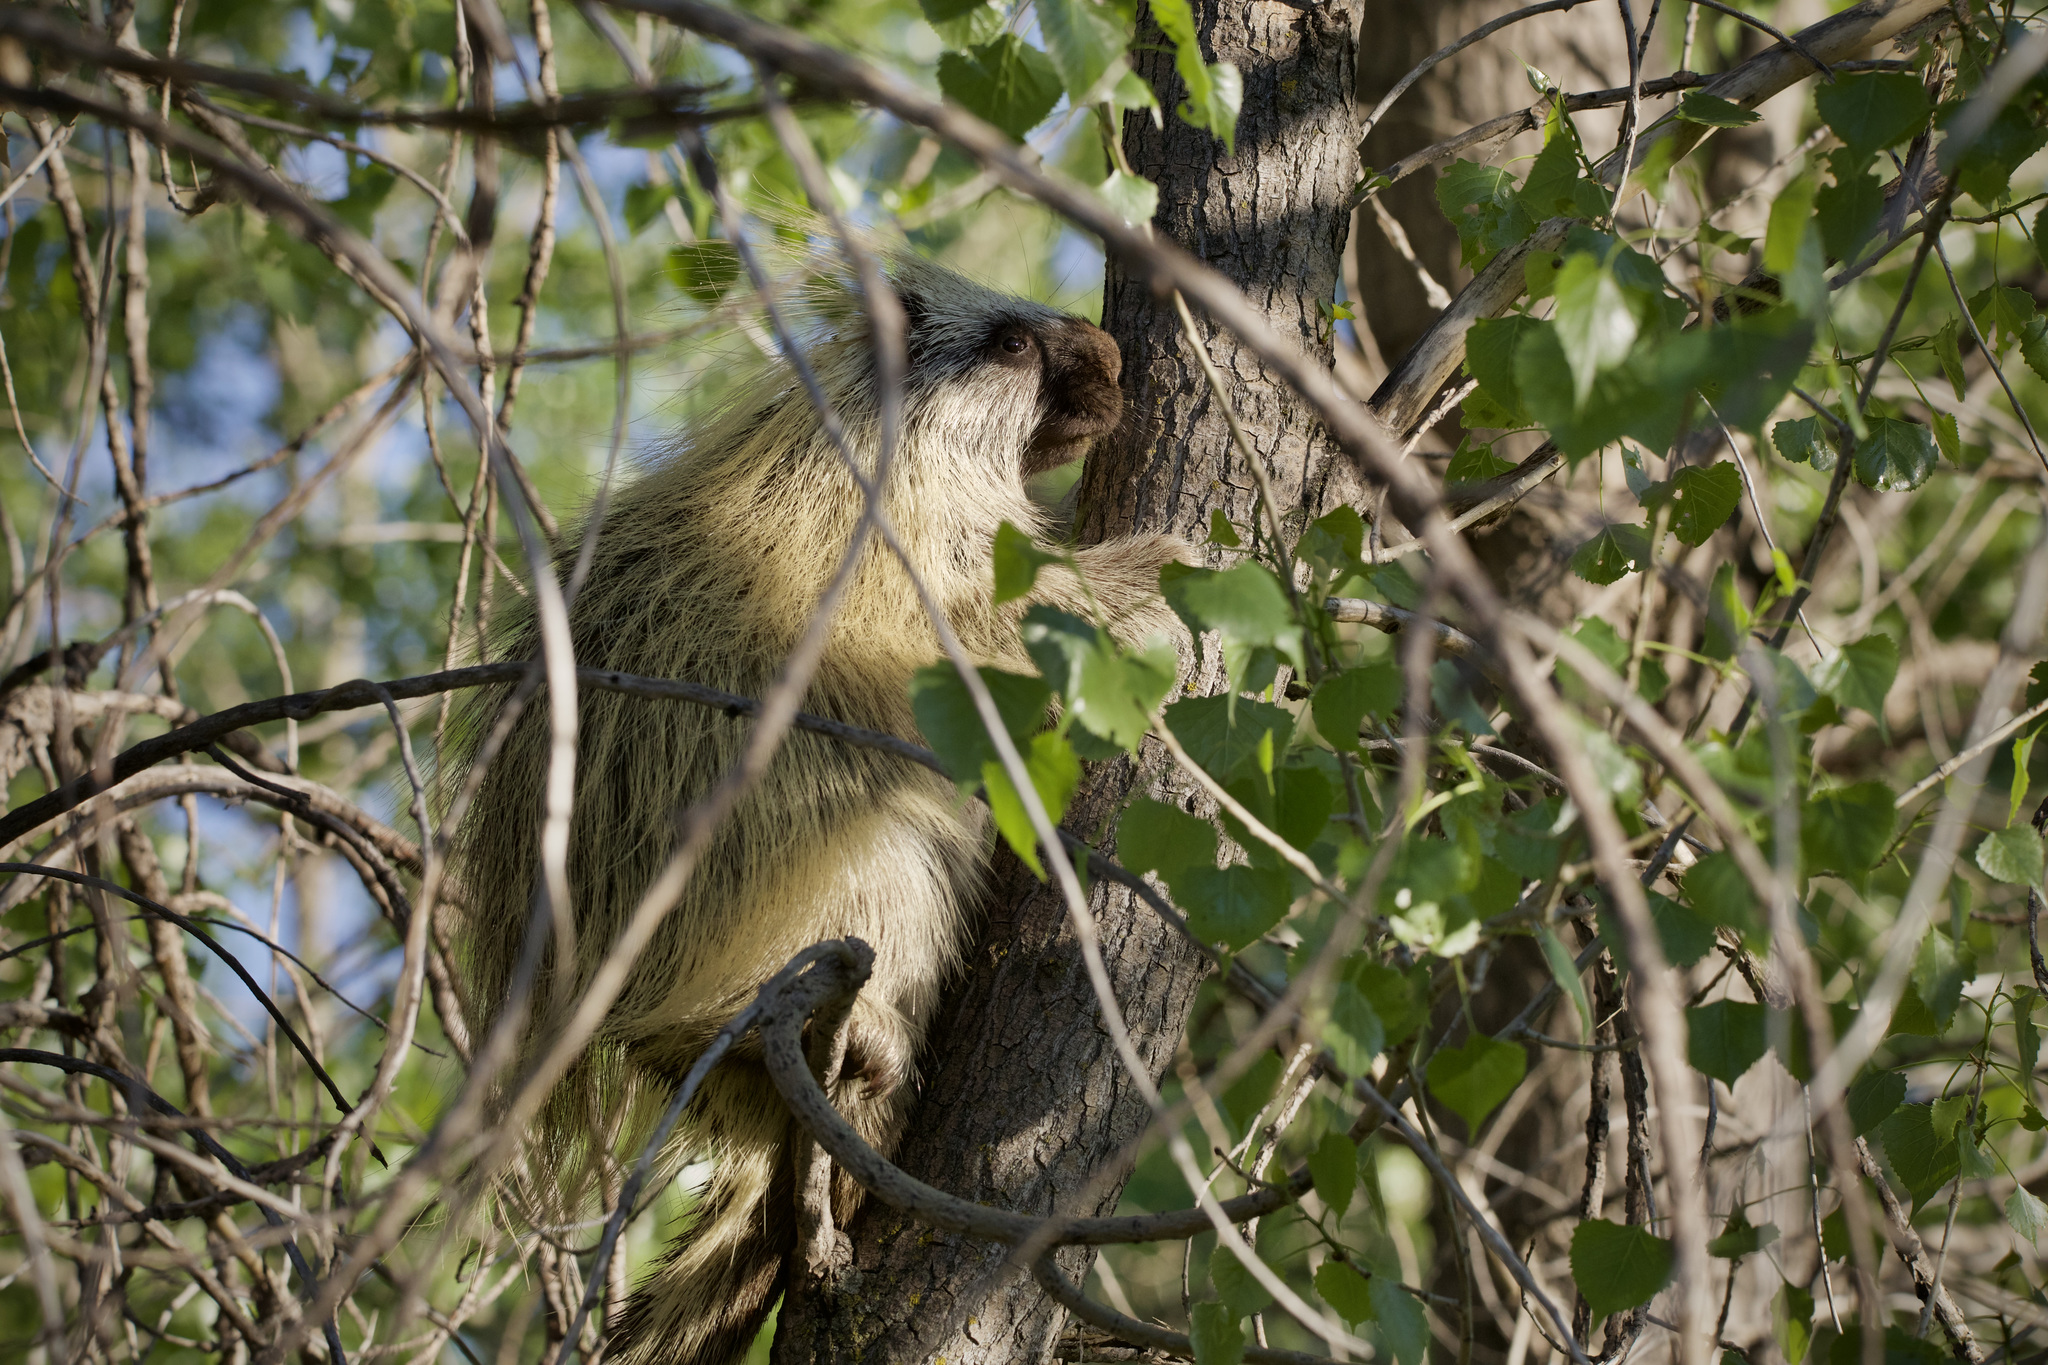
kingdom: Animalia
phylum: Chordata
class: Mammalia
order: Rodentia
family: Erethizontidae
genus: Erethizon
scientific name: Erethizon dorsatus
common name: North american porcupine
